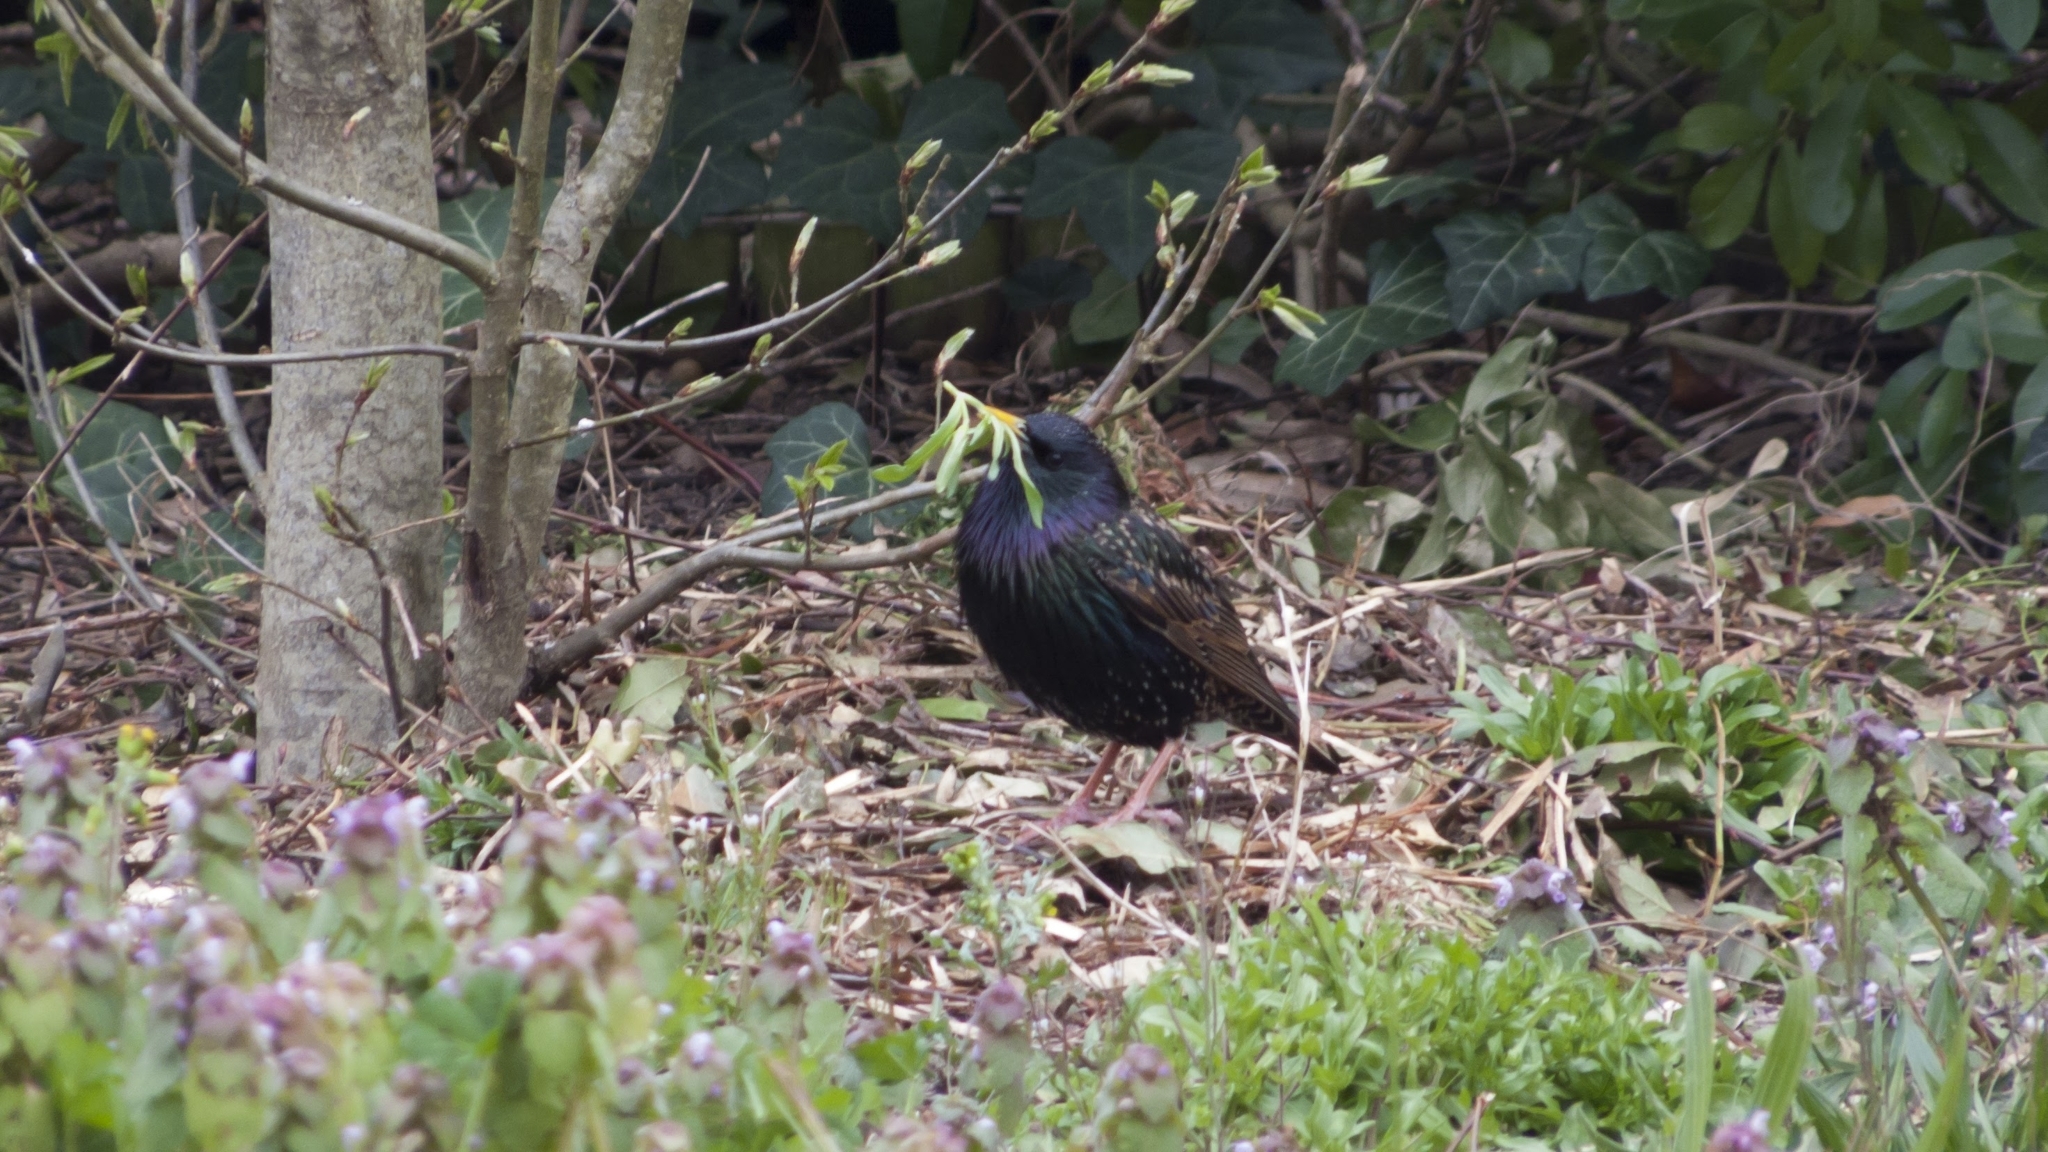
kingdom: Animalia
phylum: Chordata
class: Aves
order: Passeriformes
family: Sturnidae
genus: Sturnus
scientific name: Sturnus vulgaris
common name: Common starling
